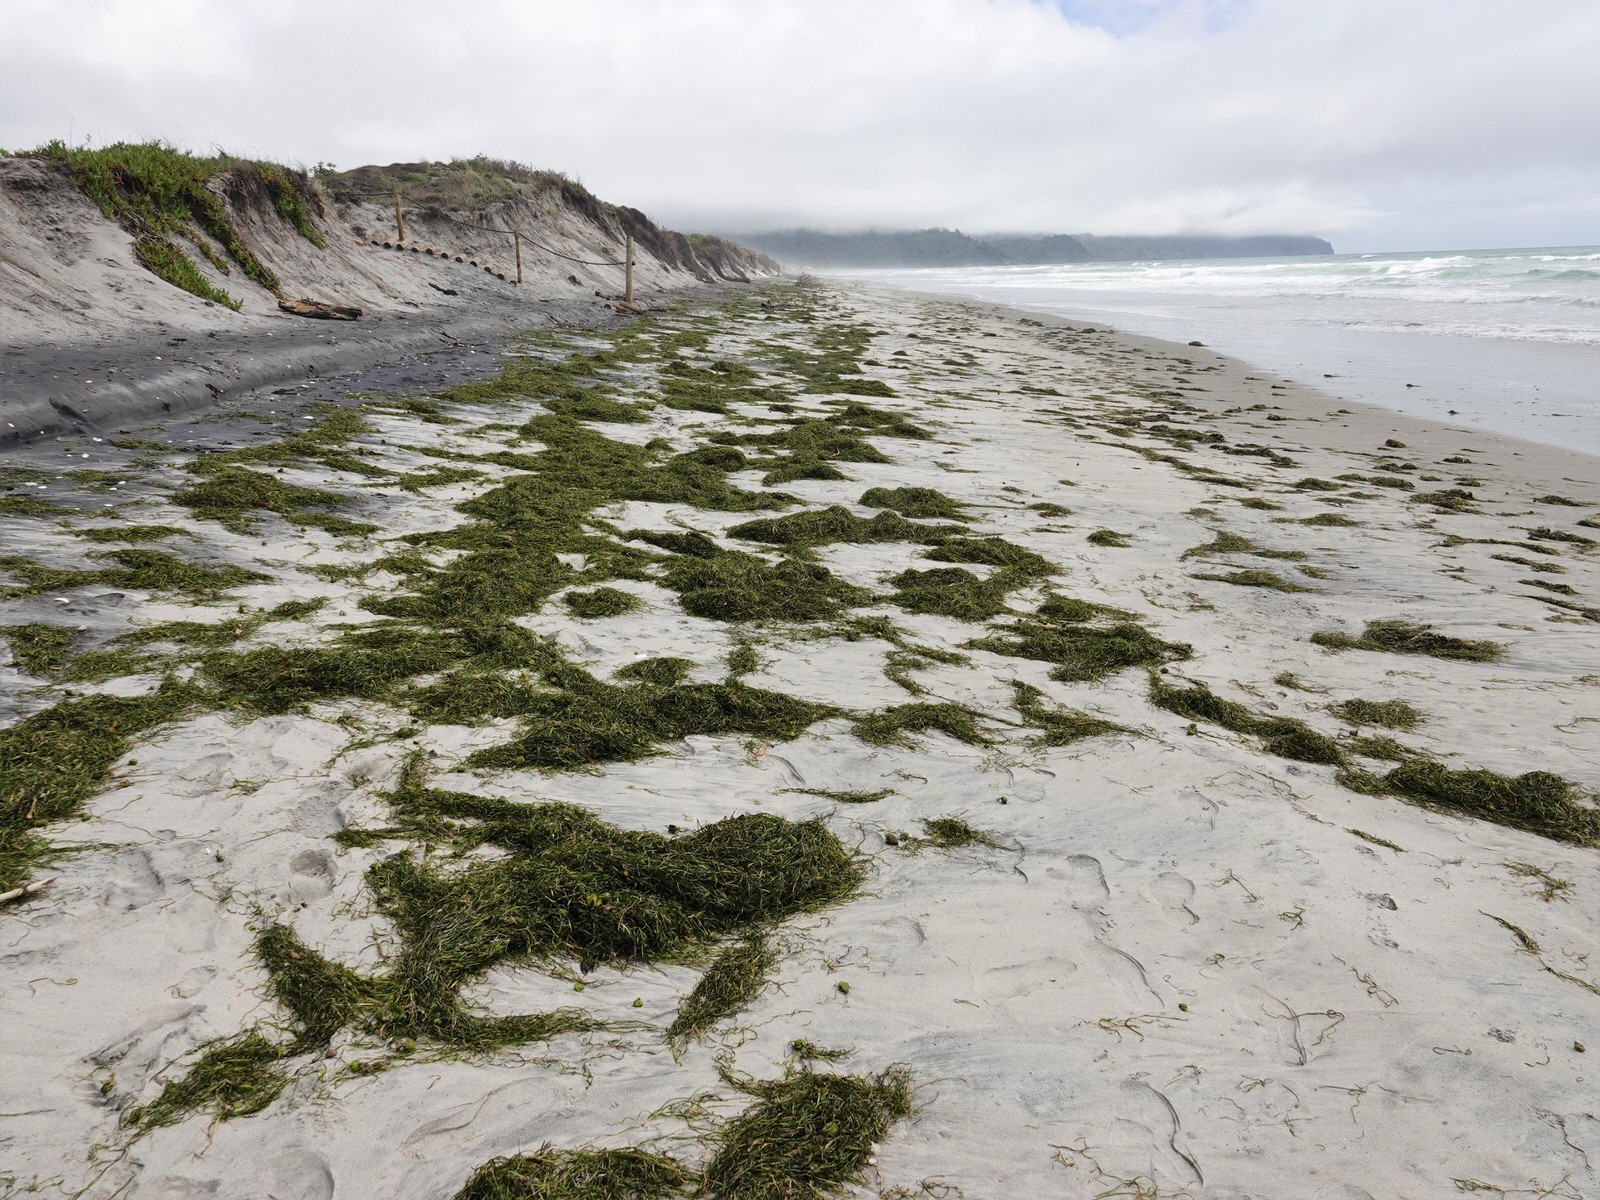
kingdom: Plantae
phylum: Tracheophyta
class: Liliopsida
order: Alismatales
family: Zosteraceae
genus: Zostera
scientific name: Zostera novazelandica
